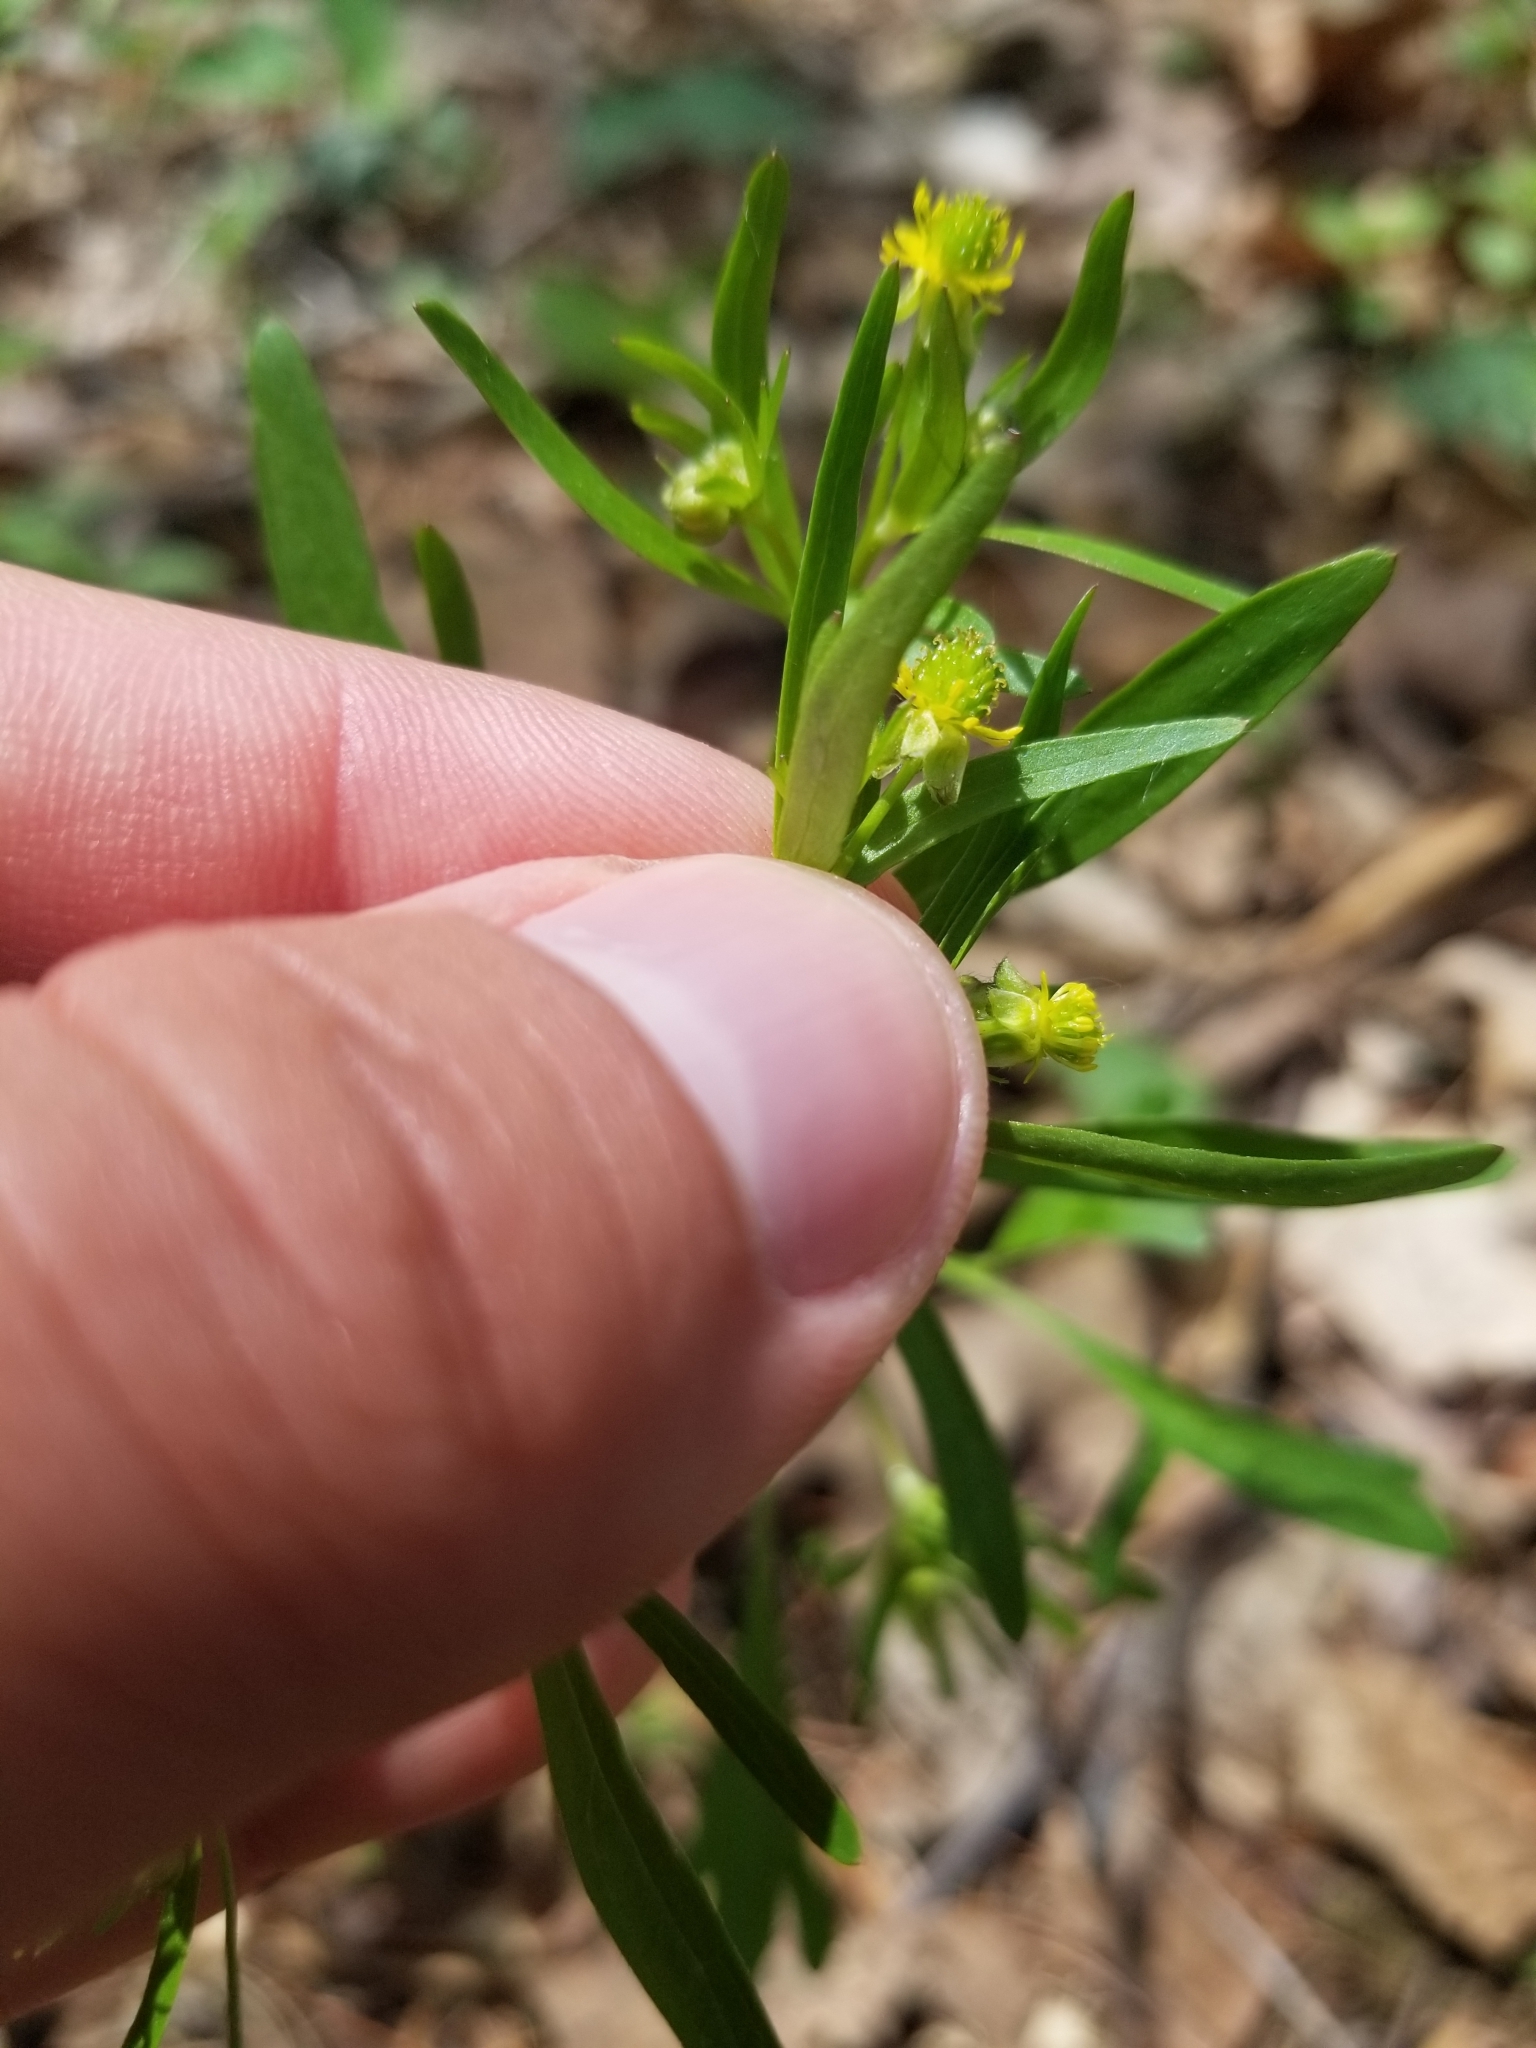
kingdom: Plantae
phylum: Tracheophyta
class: Magnoliopsida
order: Ranunculales
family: Ranunculaceae
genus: Ranunculus
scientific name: Ranunculus allegheniensis
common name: Allegheny mountain buttercup
